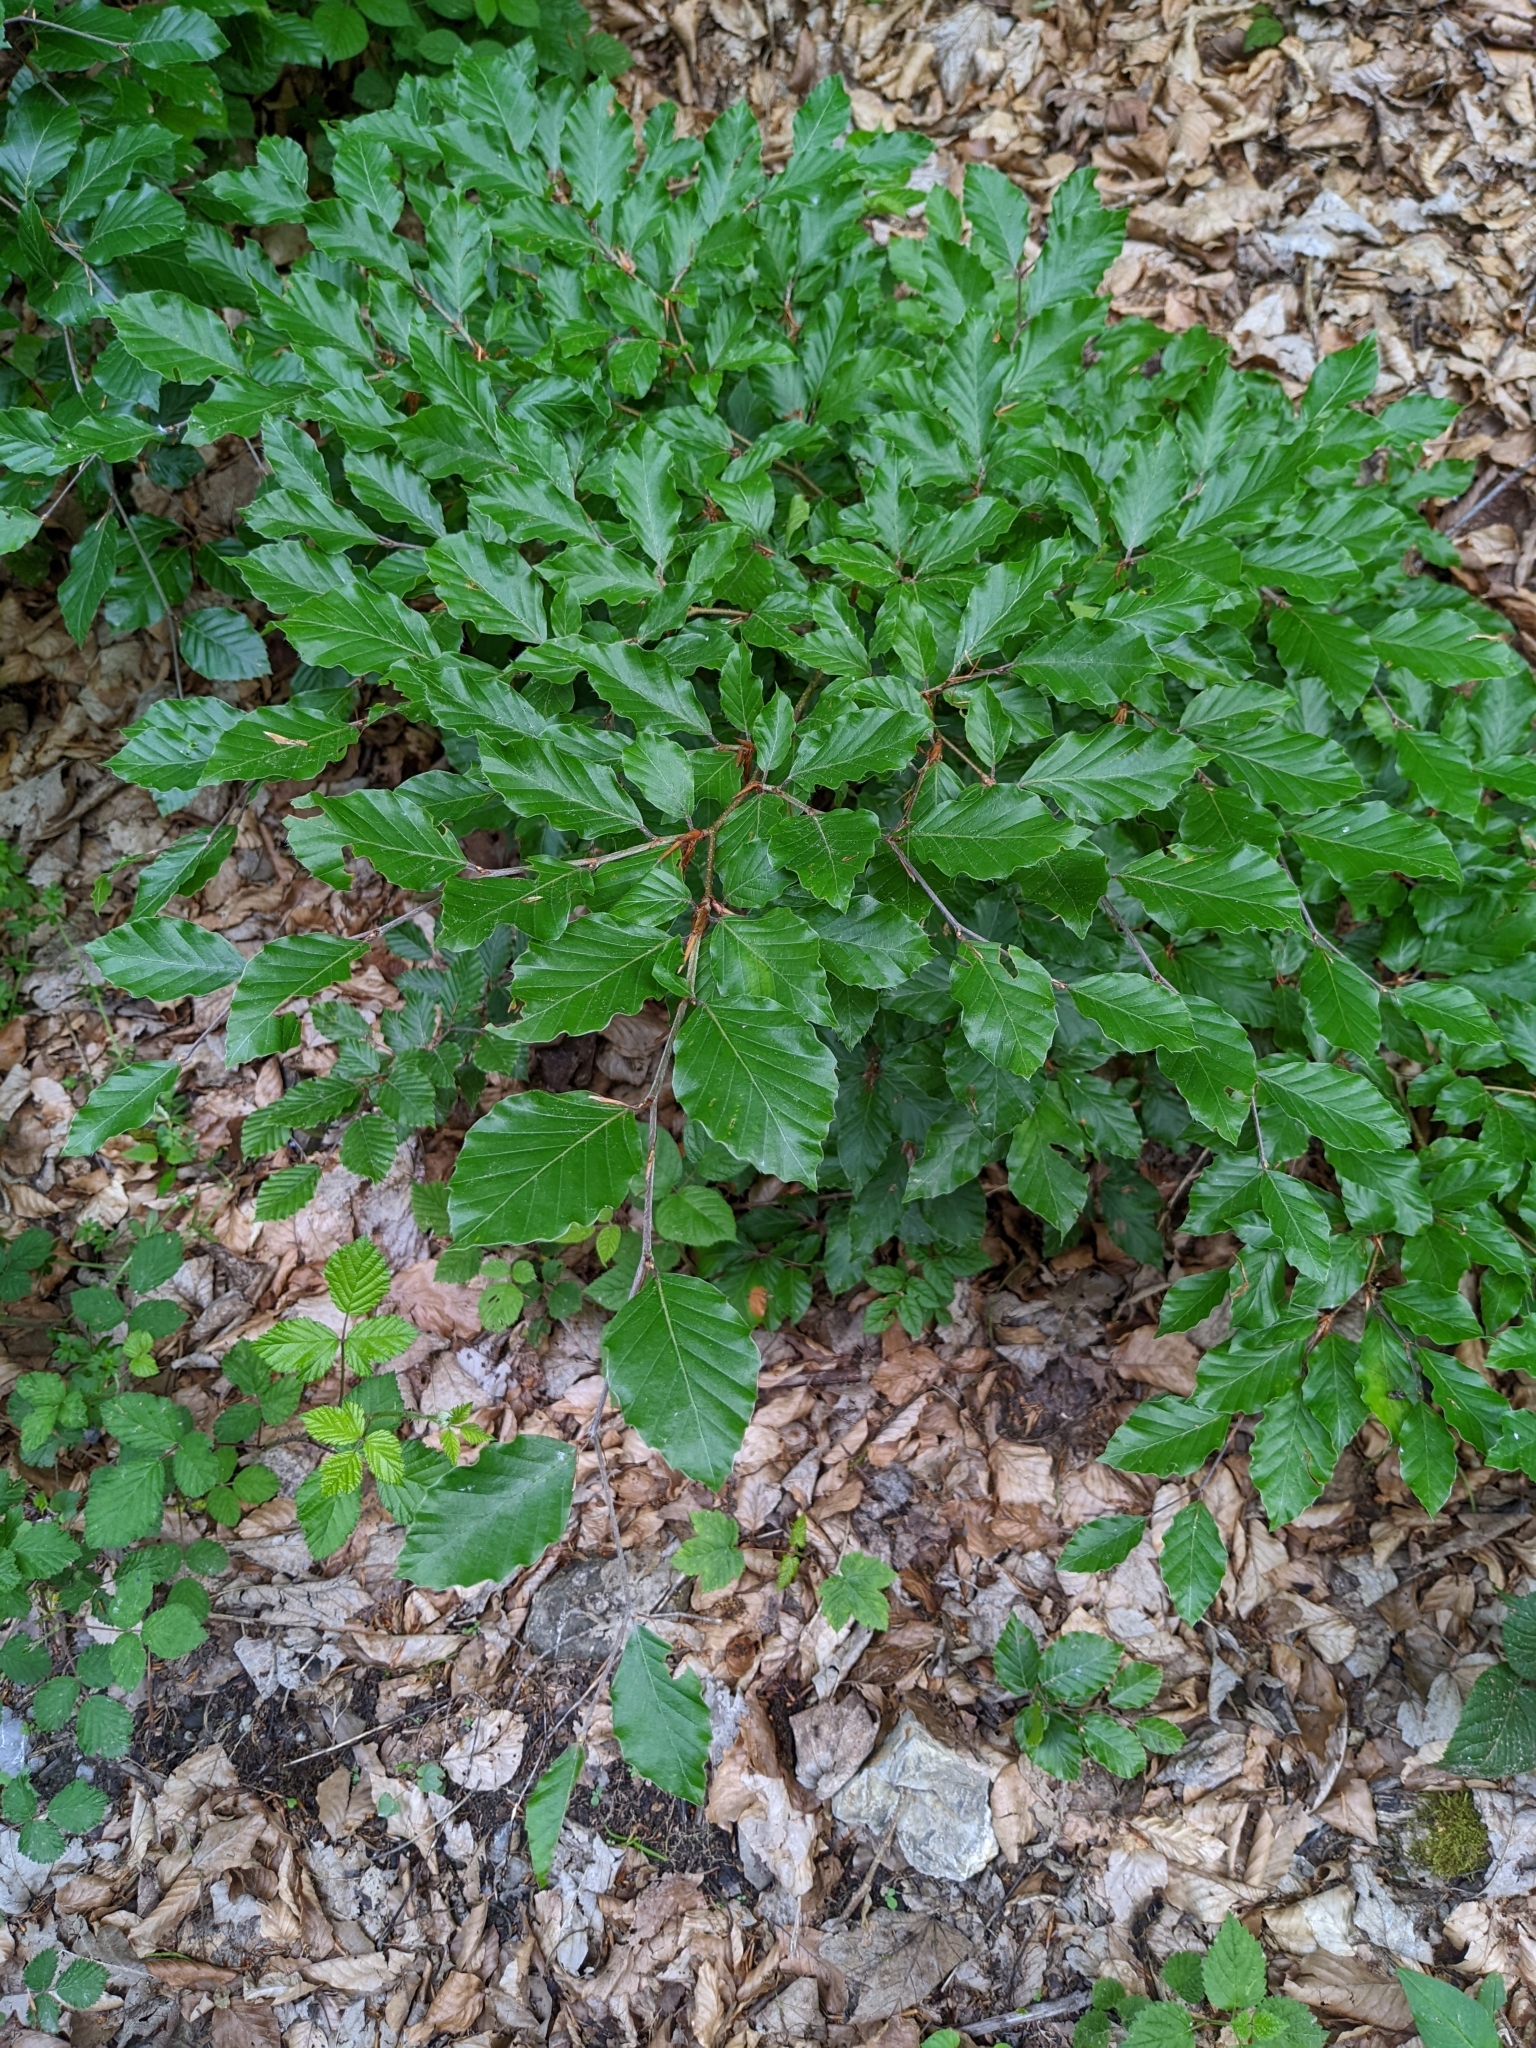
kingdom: Plantae
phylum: Tracheophyta
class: Magnoliopsida
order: Fagales
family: Fagaceae
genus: Fagus
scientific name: Fagus sylvatica
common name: Beech
